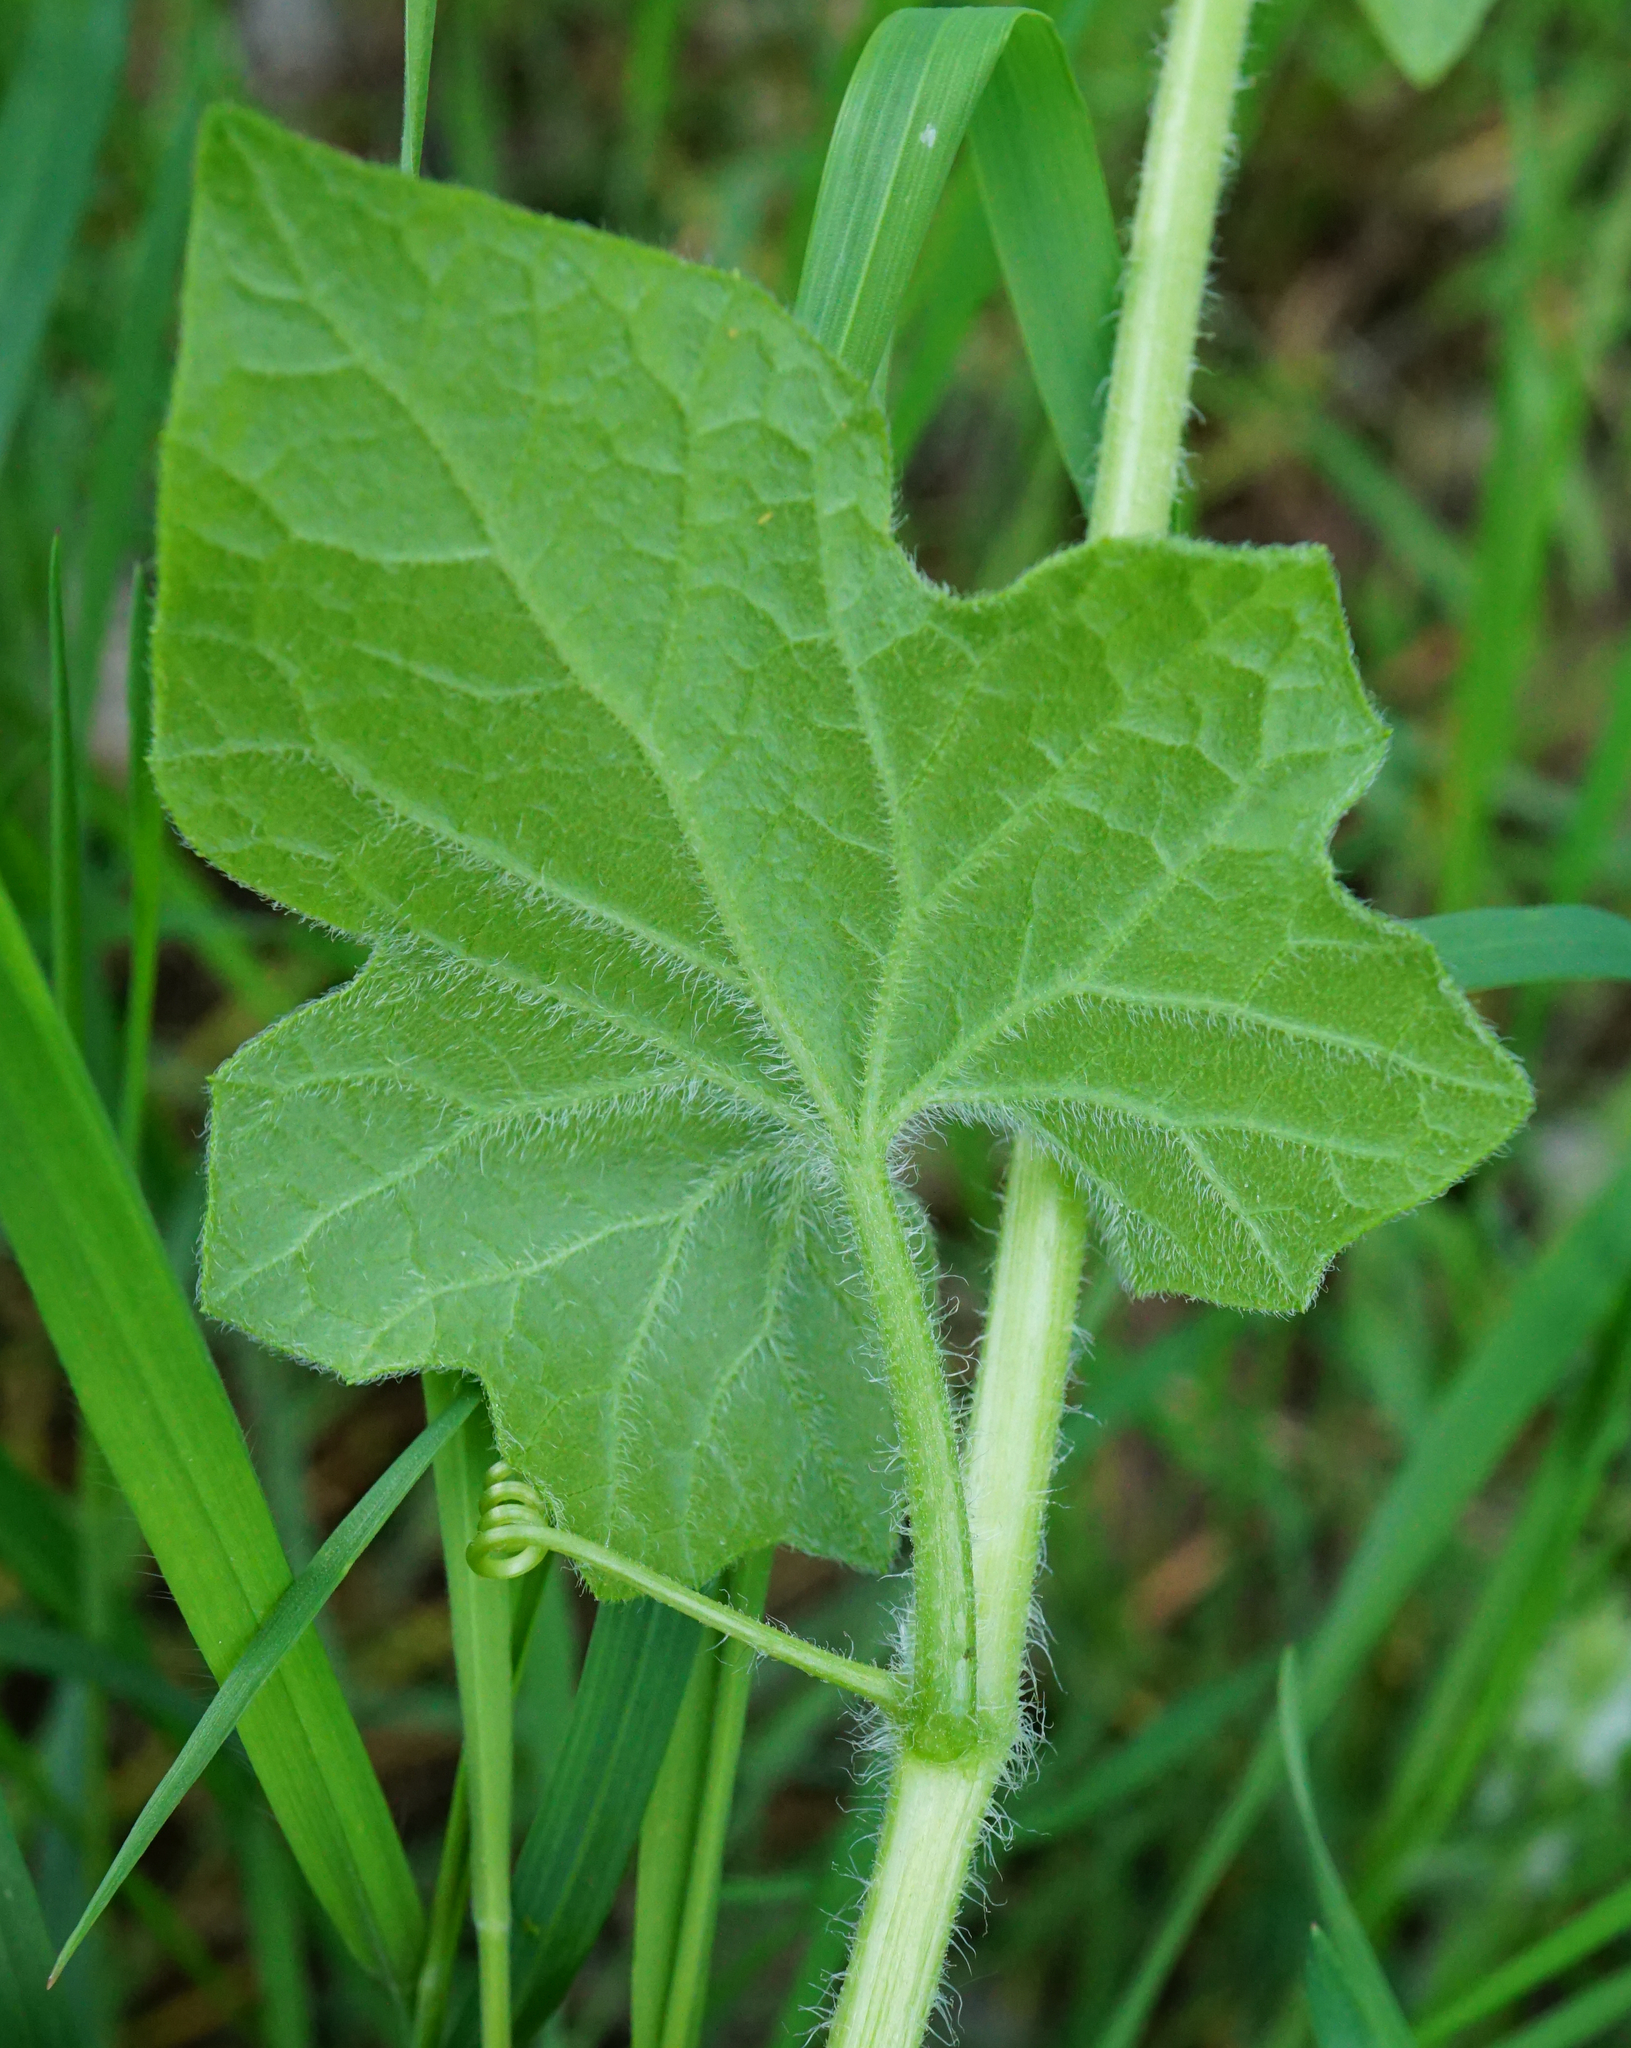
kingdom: Plantae
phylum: Tracheophyta
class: Magnoliopsida
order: Cucurbitales
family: Cucurbitaceae
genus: Bryonia
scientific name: Bryonia dioica
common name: White bryony
